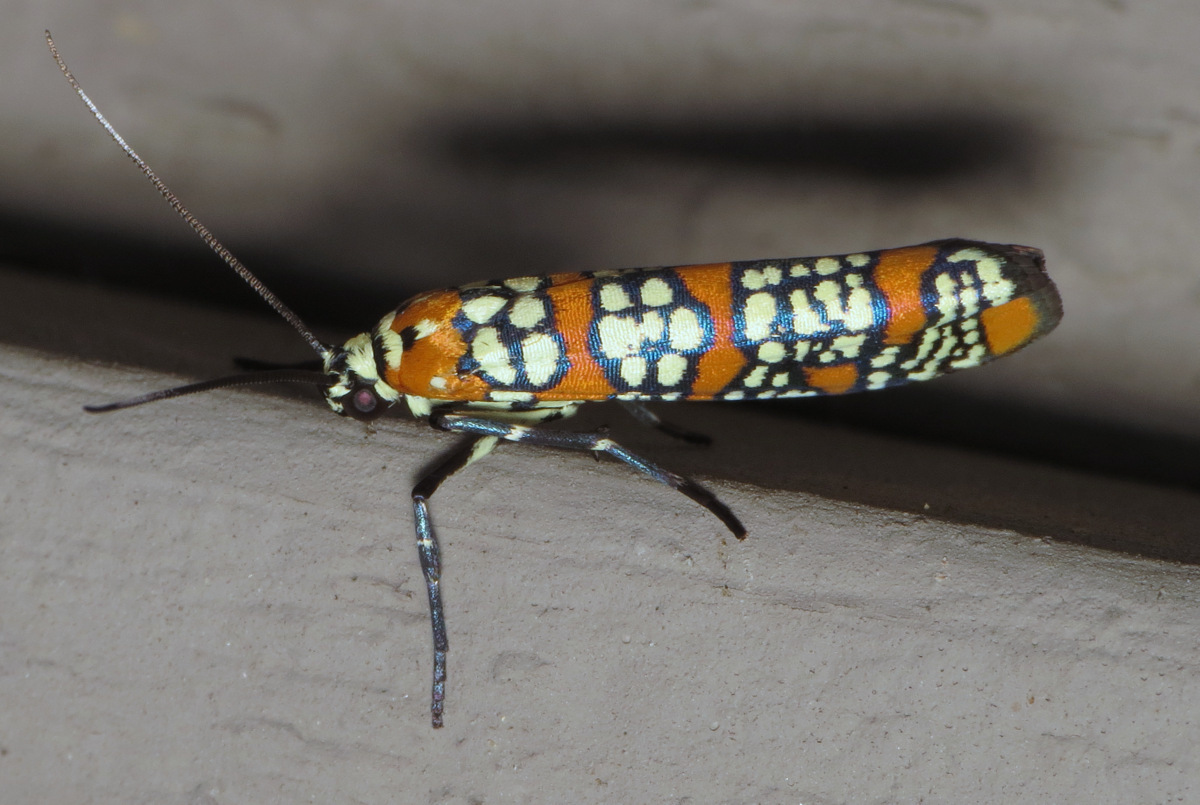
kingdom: Animalia
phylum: Arthropoda
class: Insecta
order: Lepidoptera
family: Attevidae
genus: Atteva
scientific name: Atteva punctella
